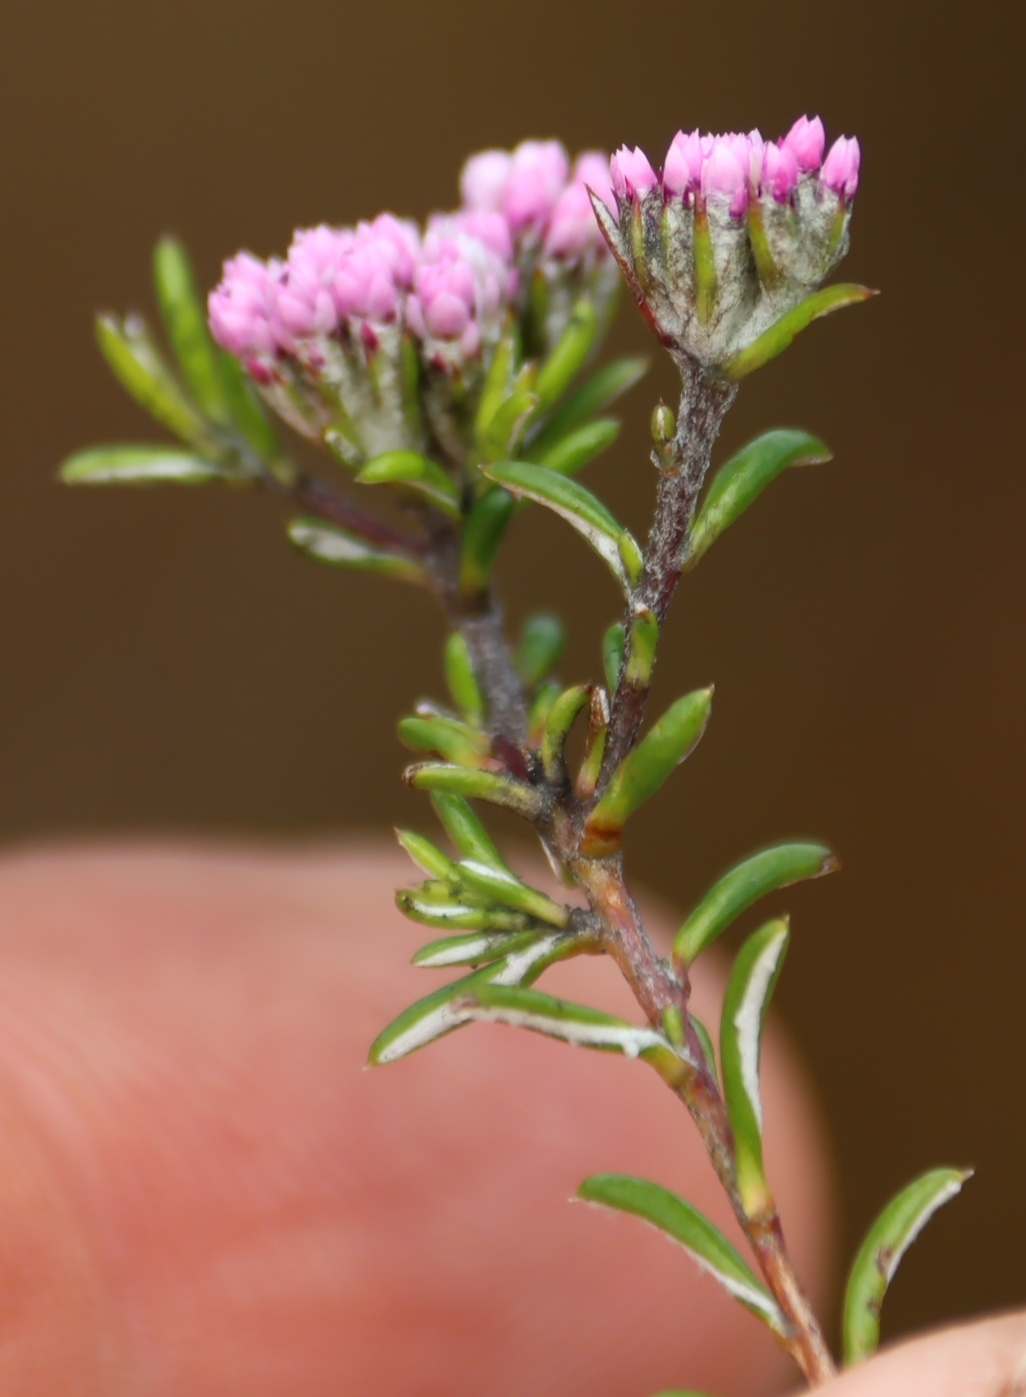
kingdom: Plantae
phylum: Tracheophyta
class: Magnoliopsida
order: Asterales
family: Asteraceae
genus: Metalasia
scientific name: Metalasia serrata
